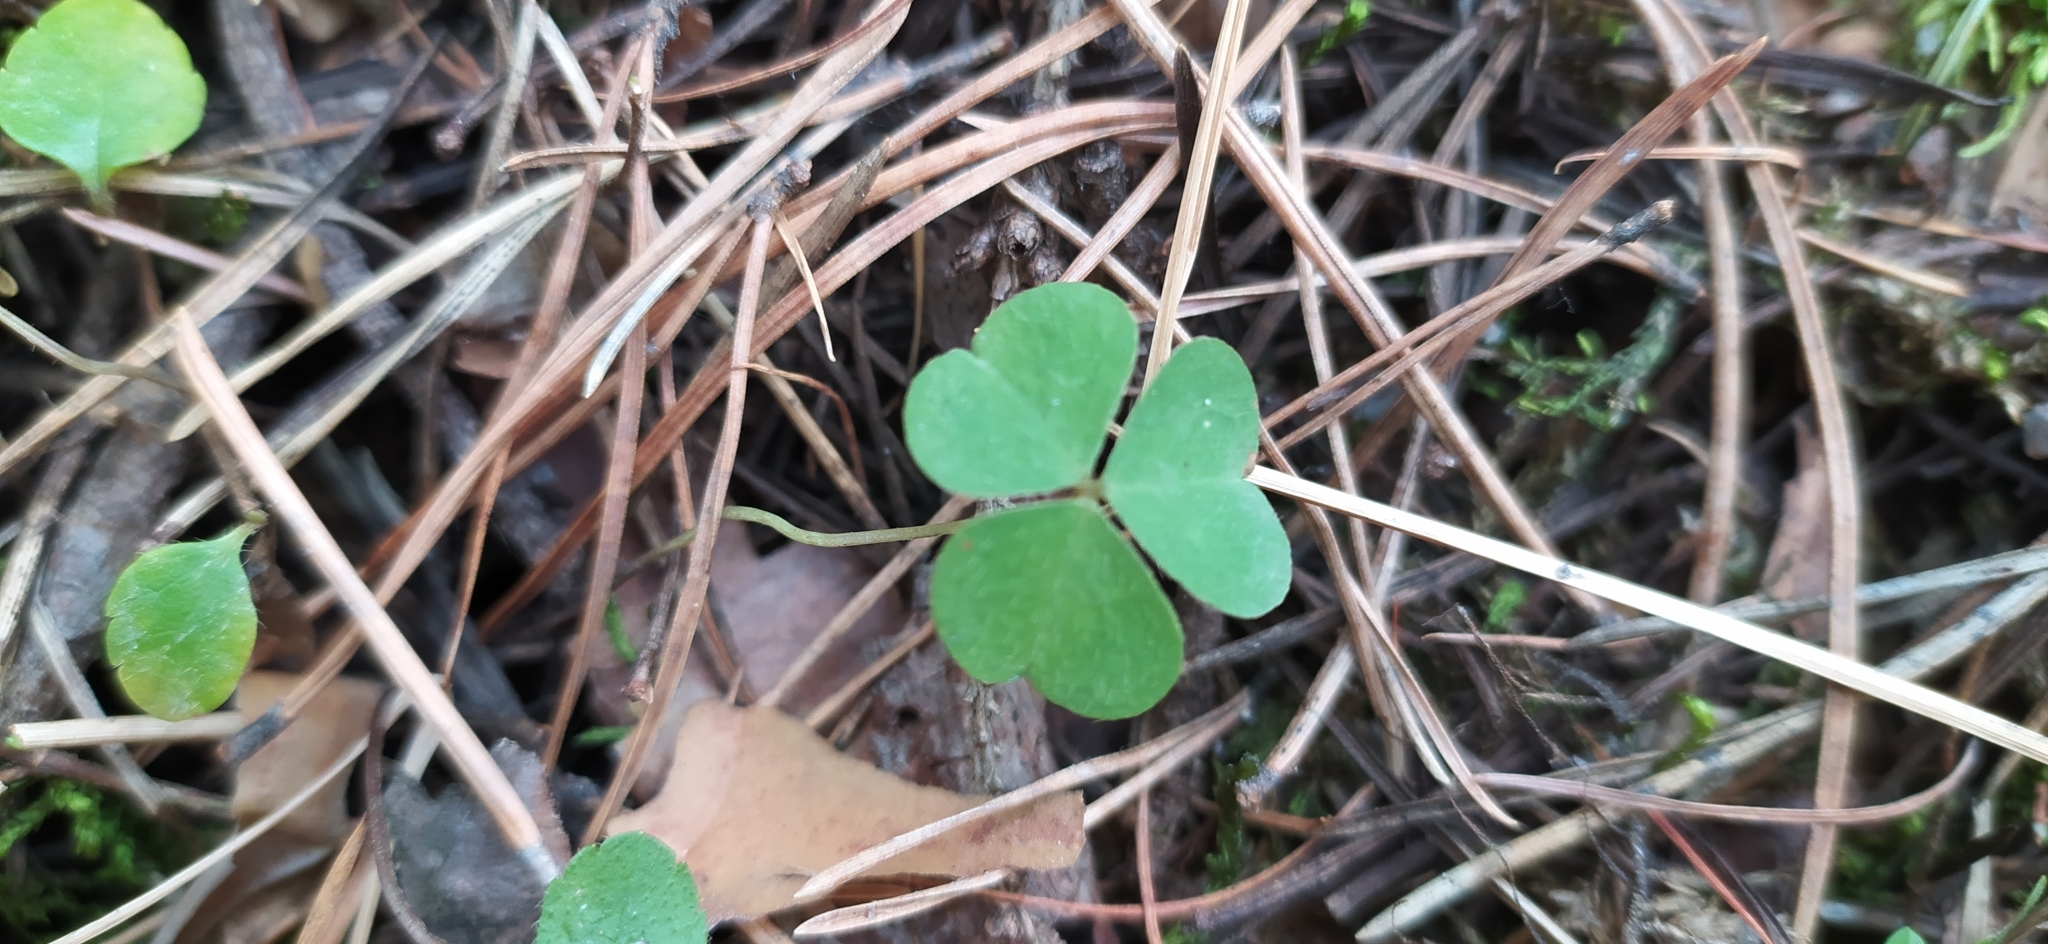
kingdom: Plantae
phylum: Tracheophyta
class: Magnoliopsida
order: Oxalidales
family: Oxalidaceae
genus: Oxalis
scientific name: Oxalis acetosella
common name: Wood-sorrel
